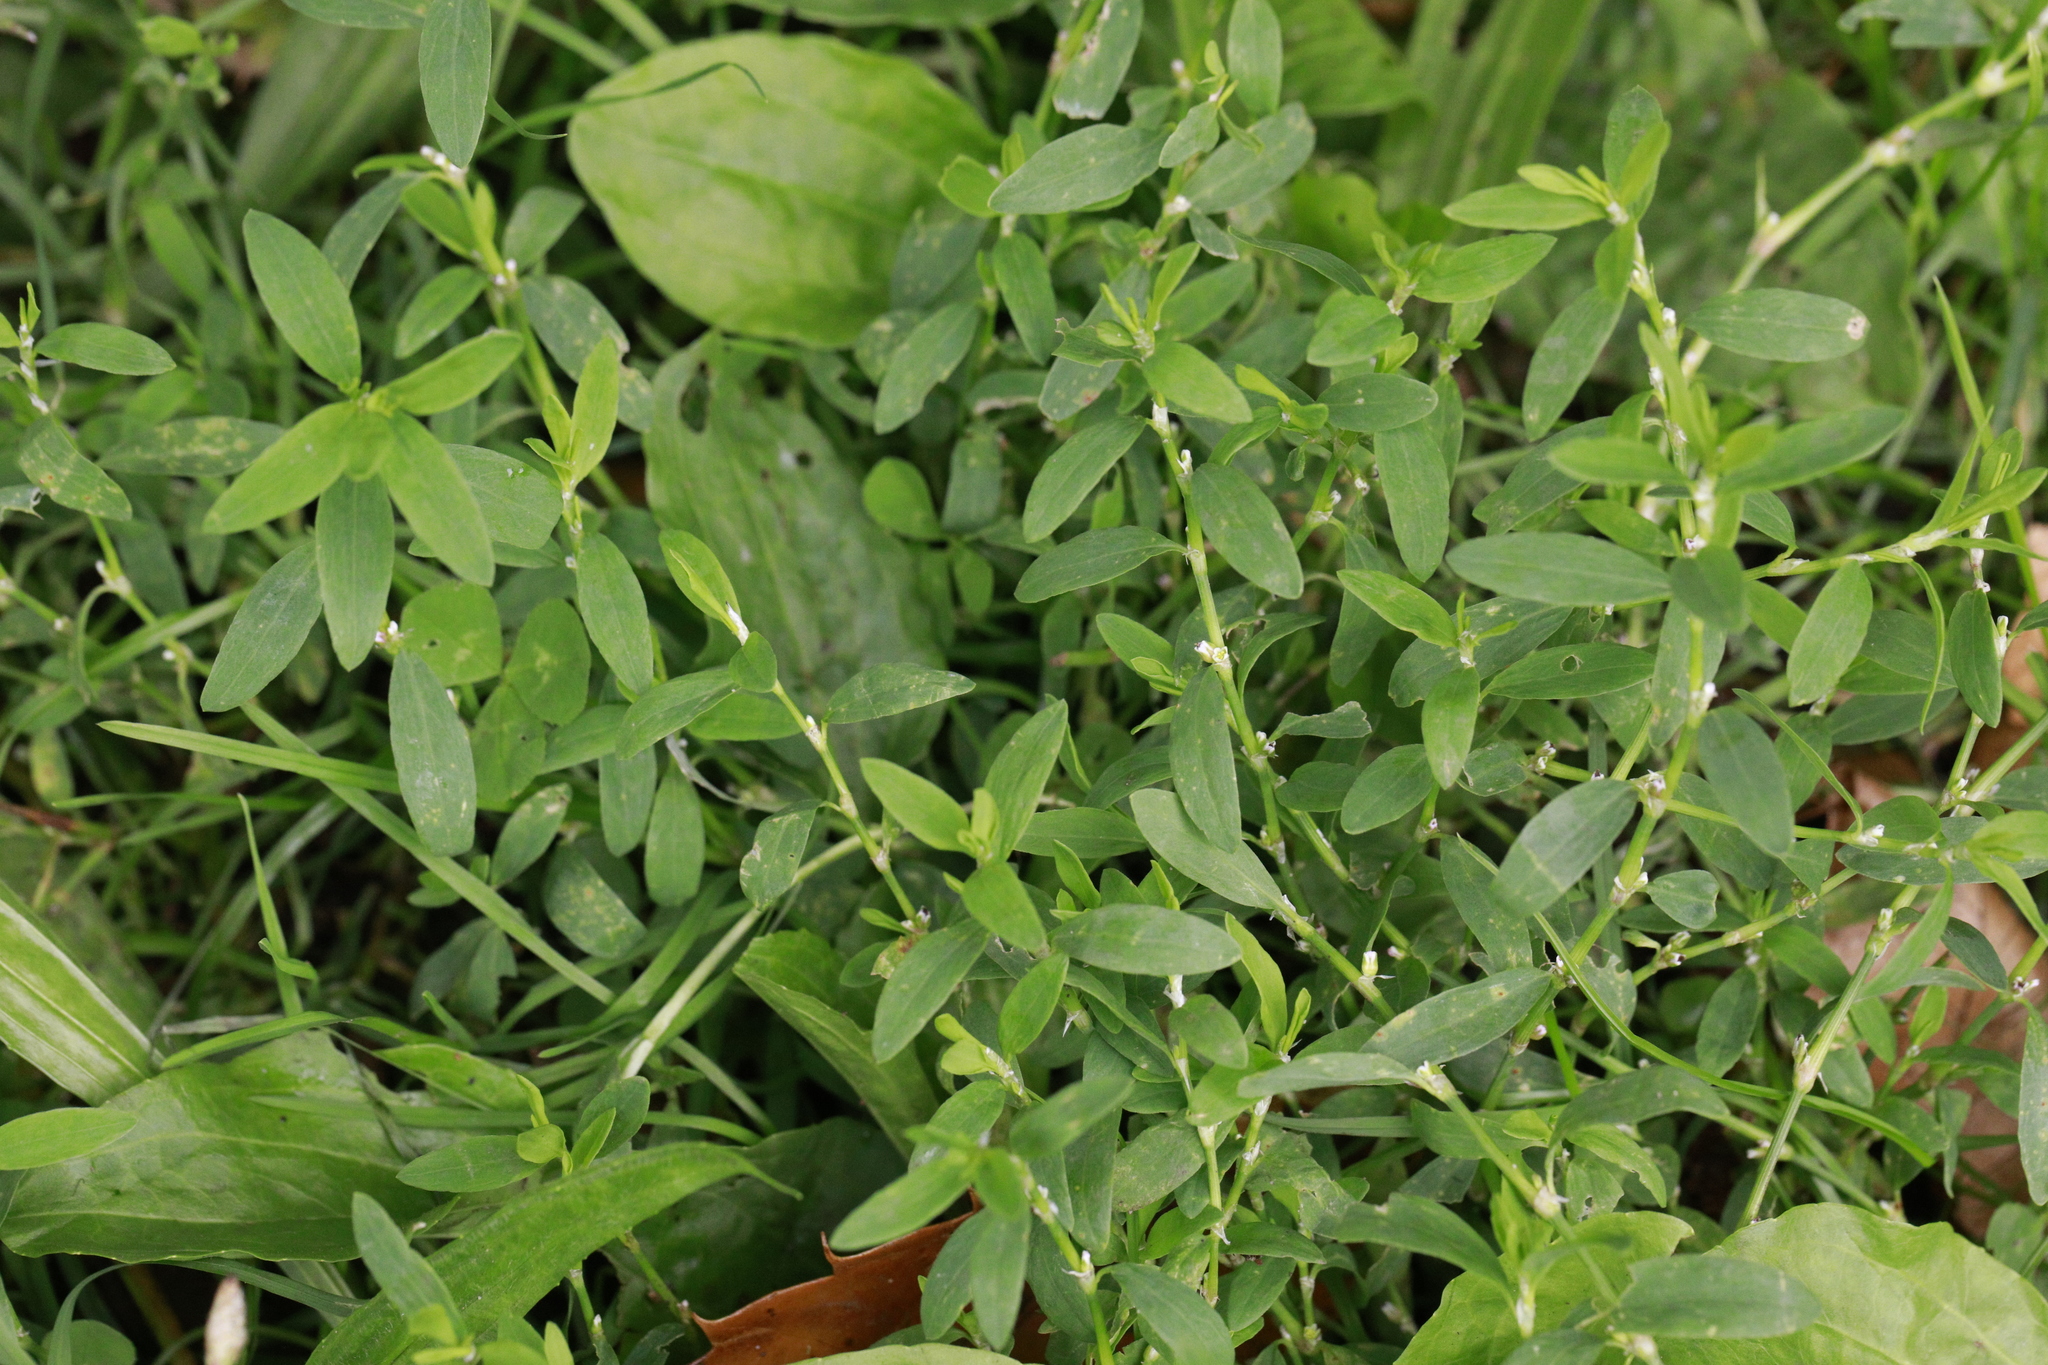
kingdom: Plantae
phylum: Tracheophyta
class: Magnoliopsida
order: Caryophyllales
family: Polygonaceae
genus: Polygonum
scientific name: Polygonum aviculare
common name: Prostrate knotweed
